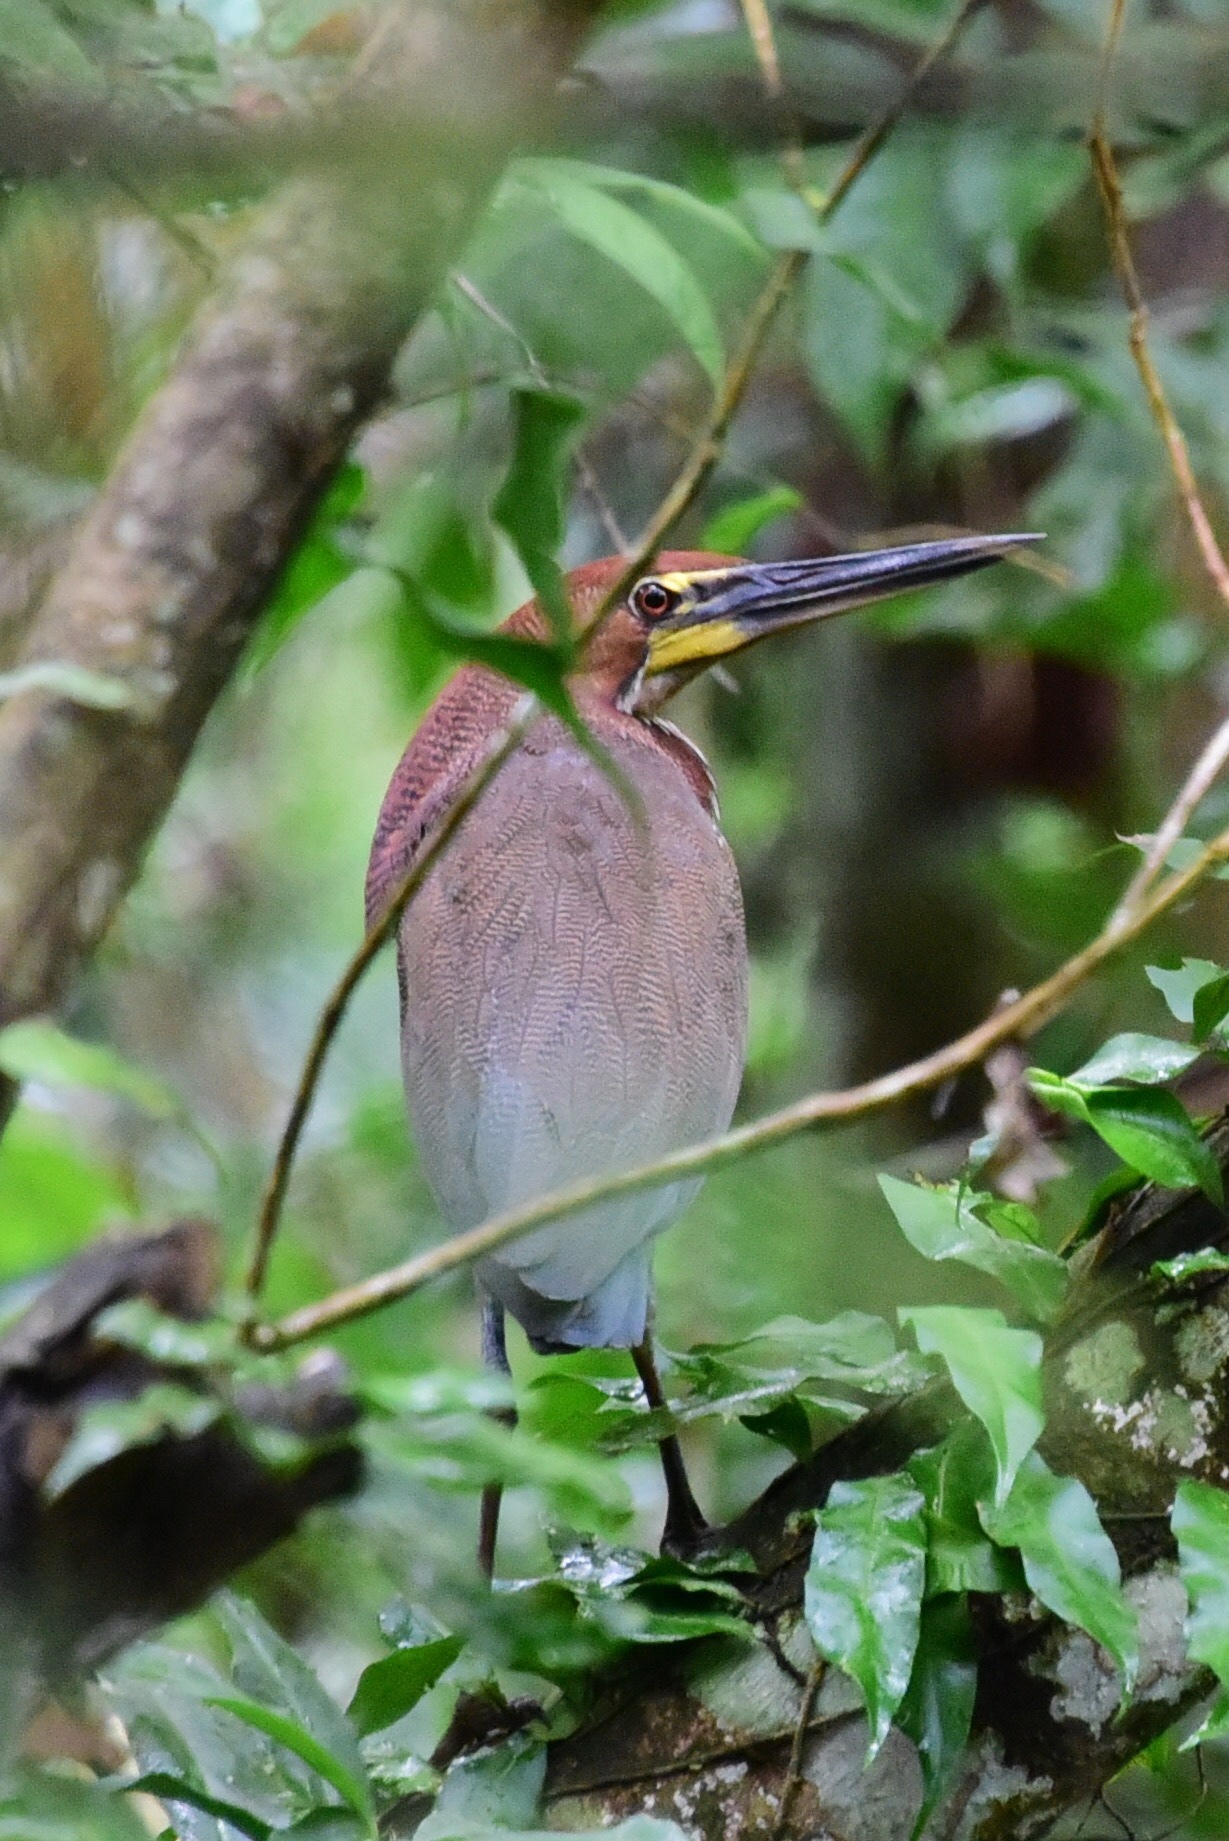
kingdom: Animalia
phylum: Chordata
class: Aves
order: Pelecaniformes
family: Ardeidae
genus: Tigrisoma
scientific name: Tigrisoma lineatum
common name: Rufescent tiger-heron
